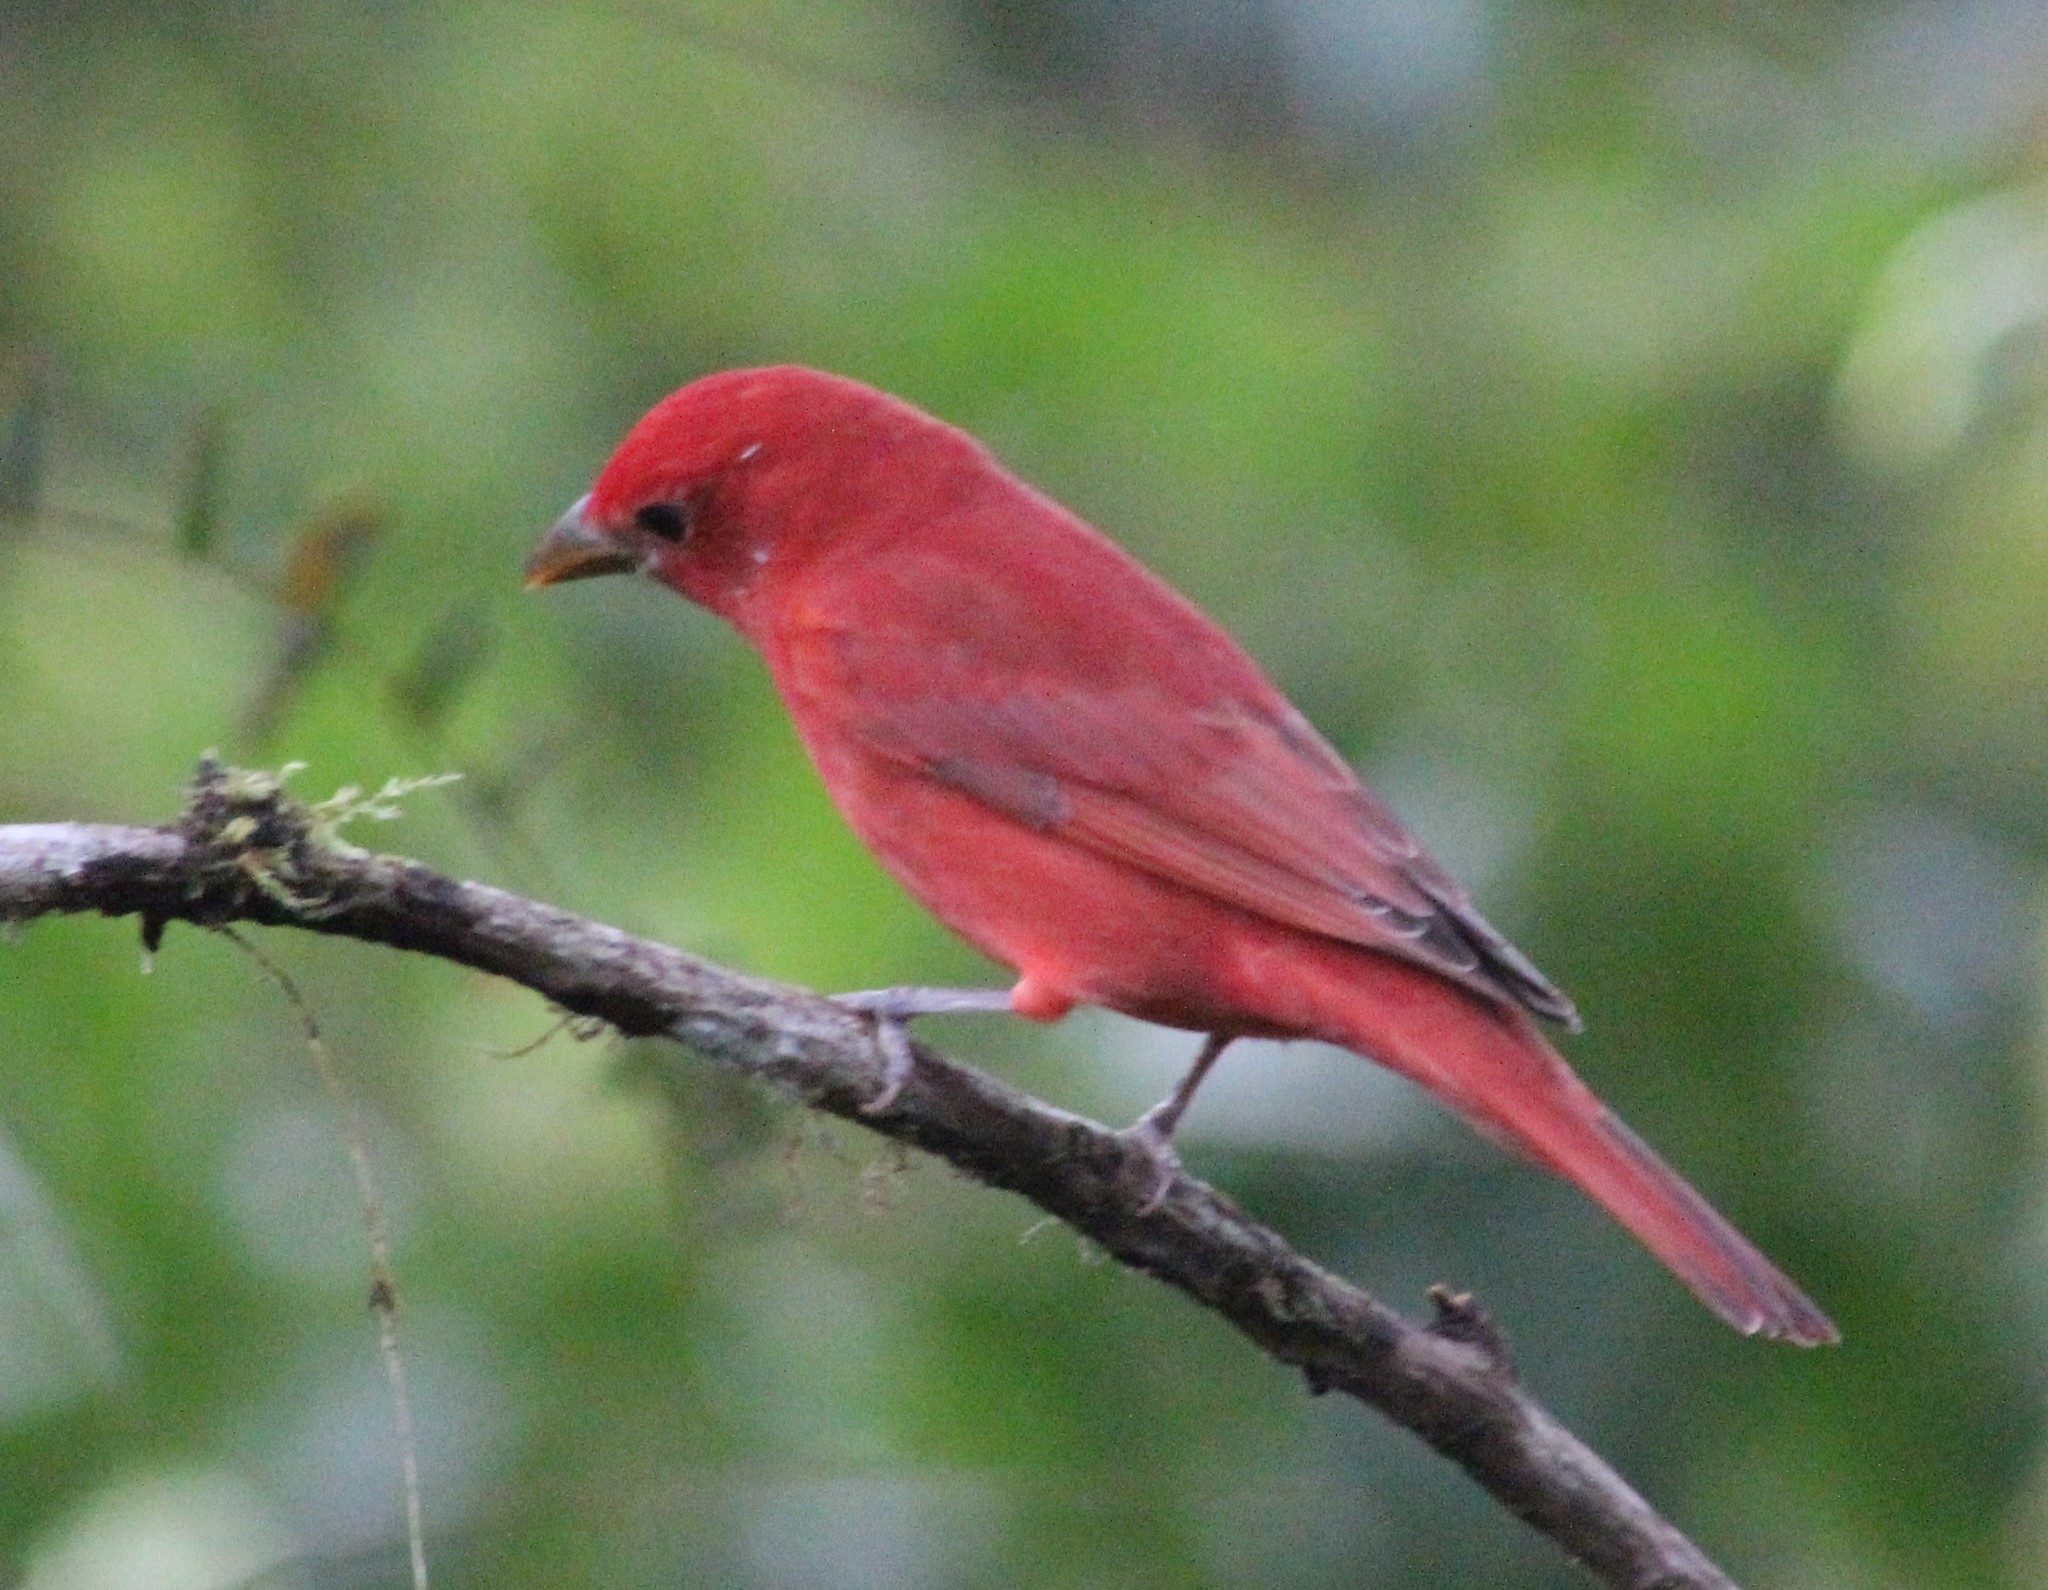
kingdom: Animalia
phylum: Chordata
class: Aves
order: Passeriformes
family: Cardinalidae
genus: Piranga
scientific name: Piranga rubra
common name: Summer tanager
